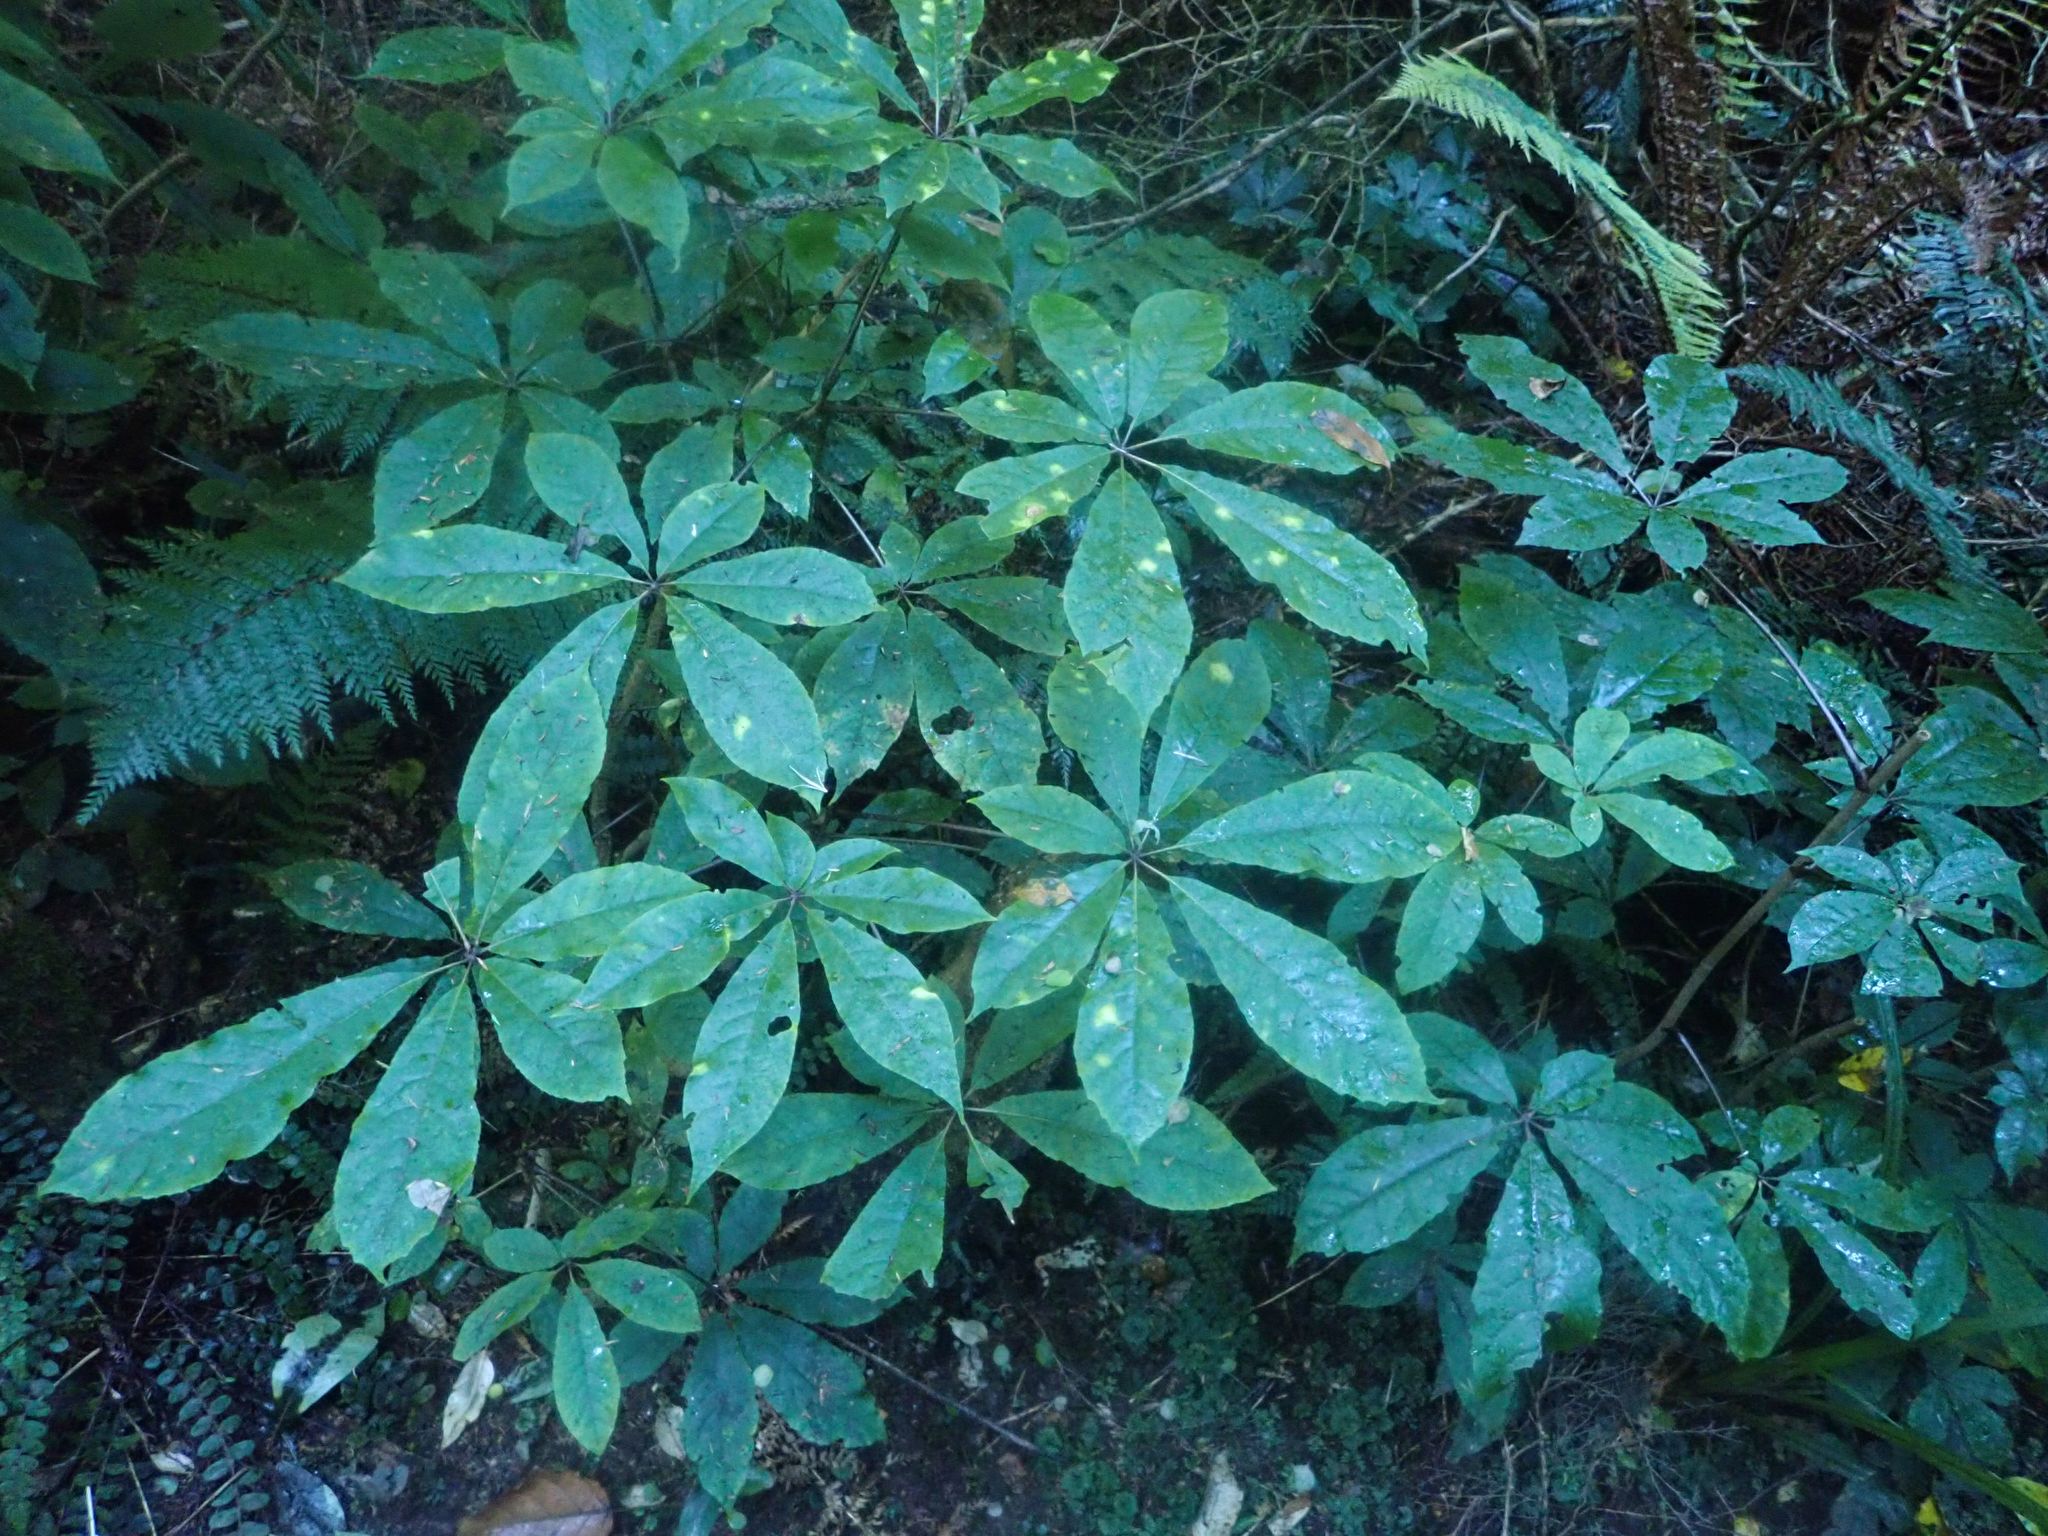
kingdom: Plantae
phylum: Tracheophyta
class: Magnoliopsida
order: Apiales
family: Araliaceae
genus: Schefflera
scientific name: Schefflera digitata
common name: Pate
